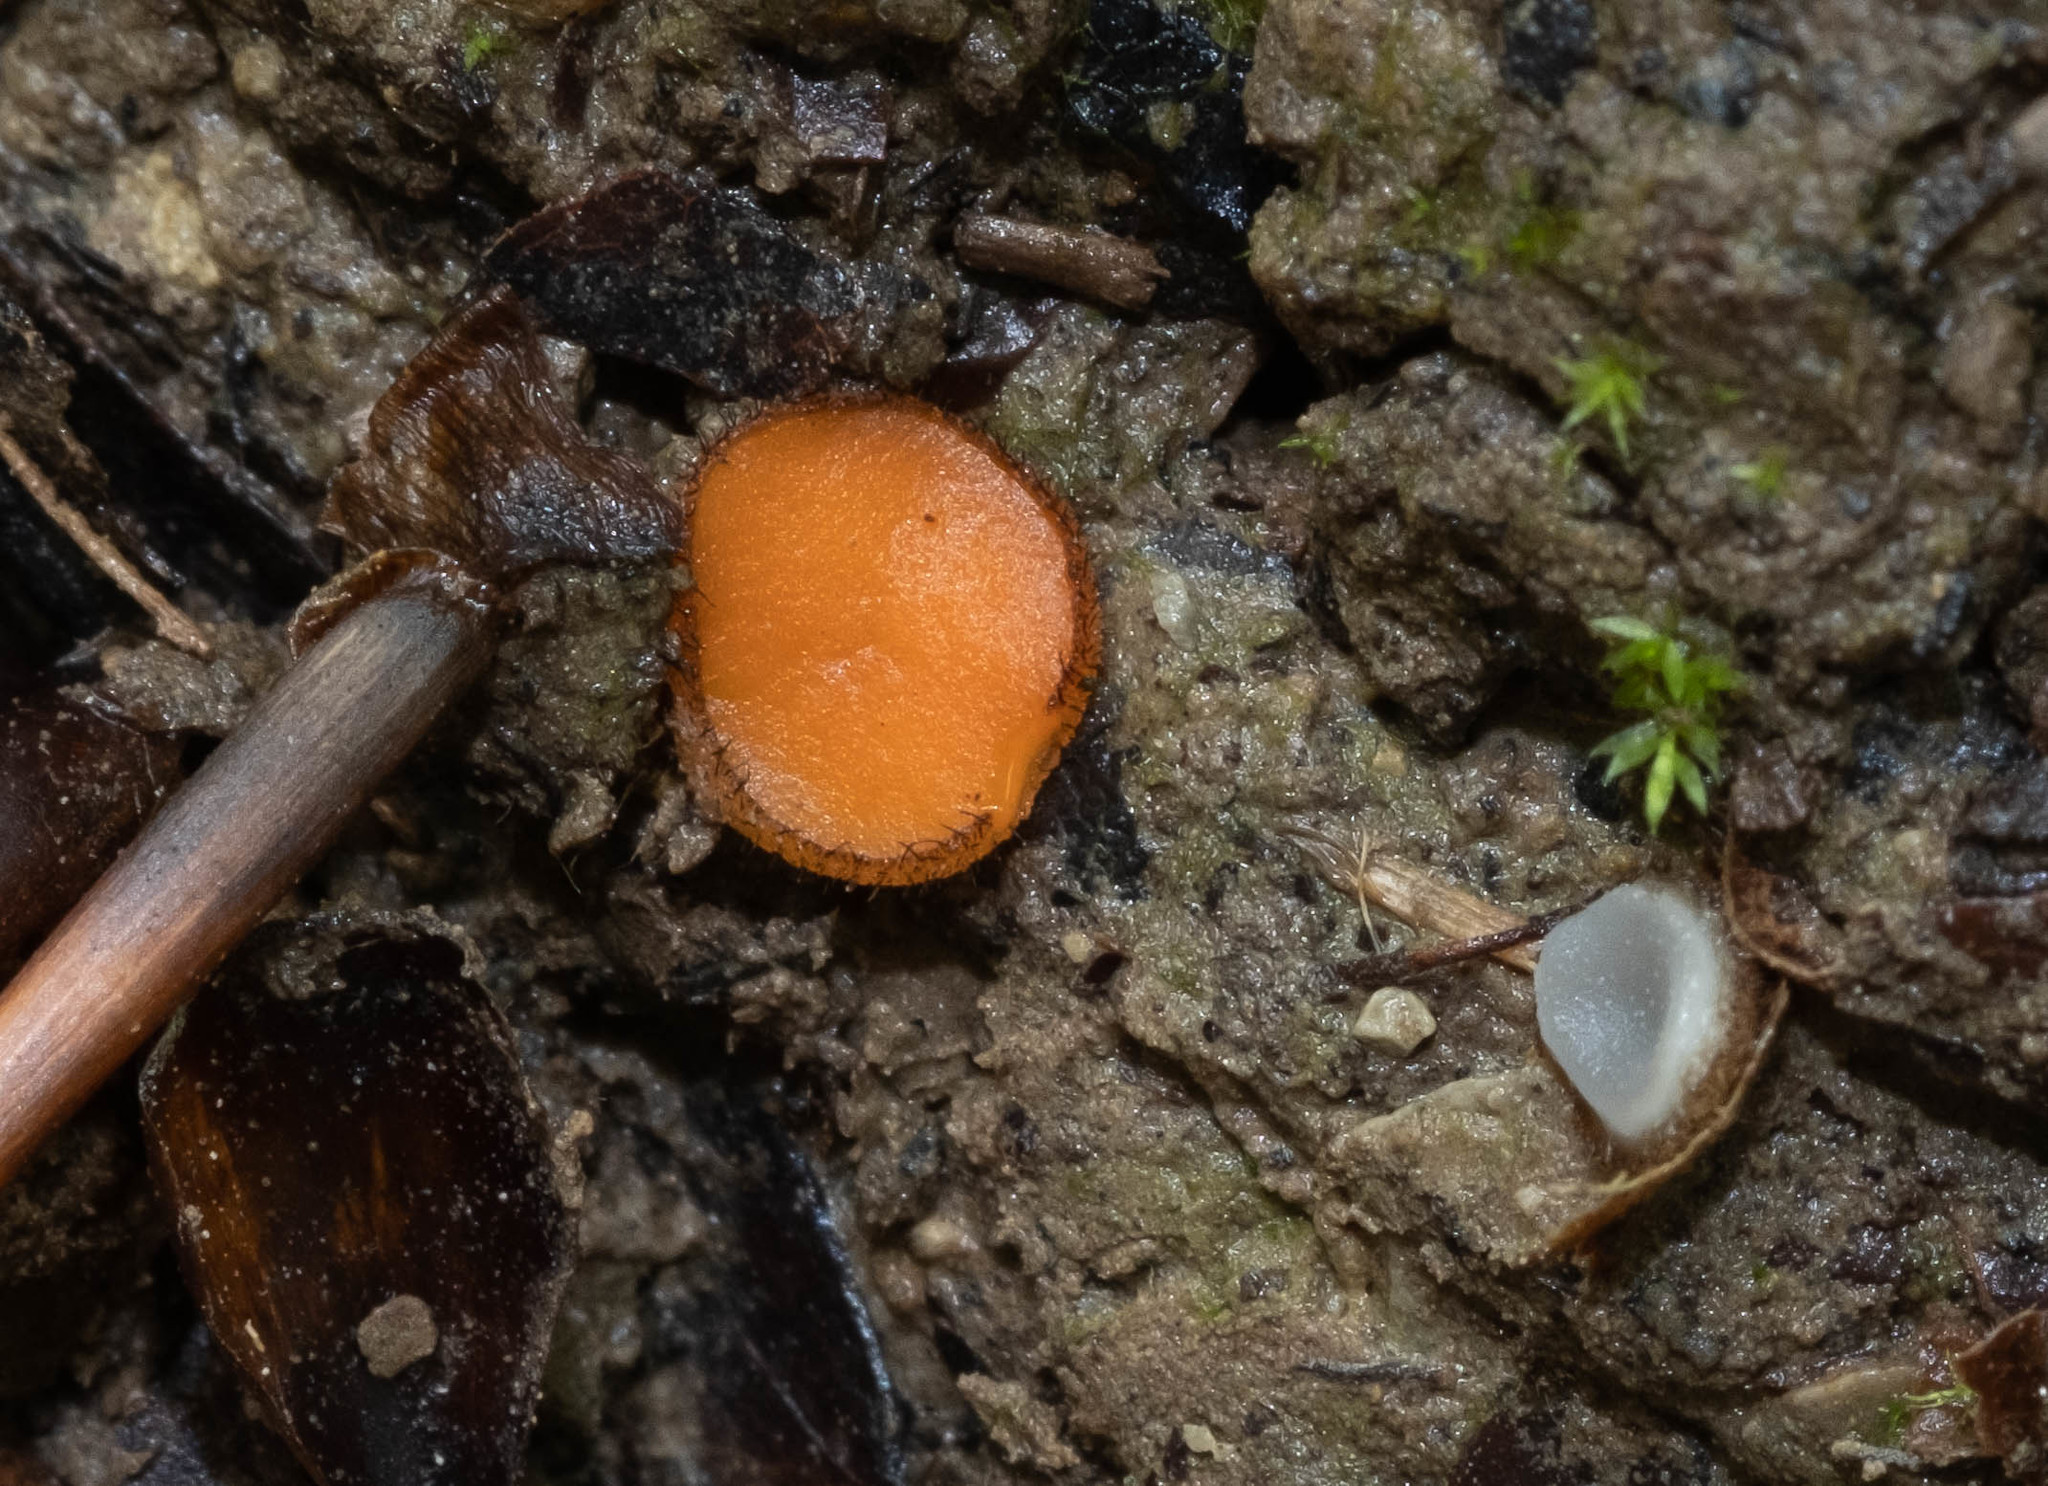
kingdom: Fungi
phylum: Ascomycota
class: Pezizomycetes
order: Pezizales
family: Pyronemataceae
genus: Scutellinia
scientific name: Scutellinia trechispora
